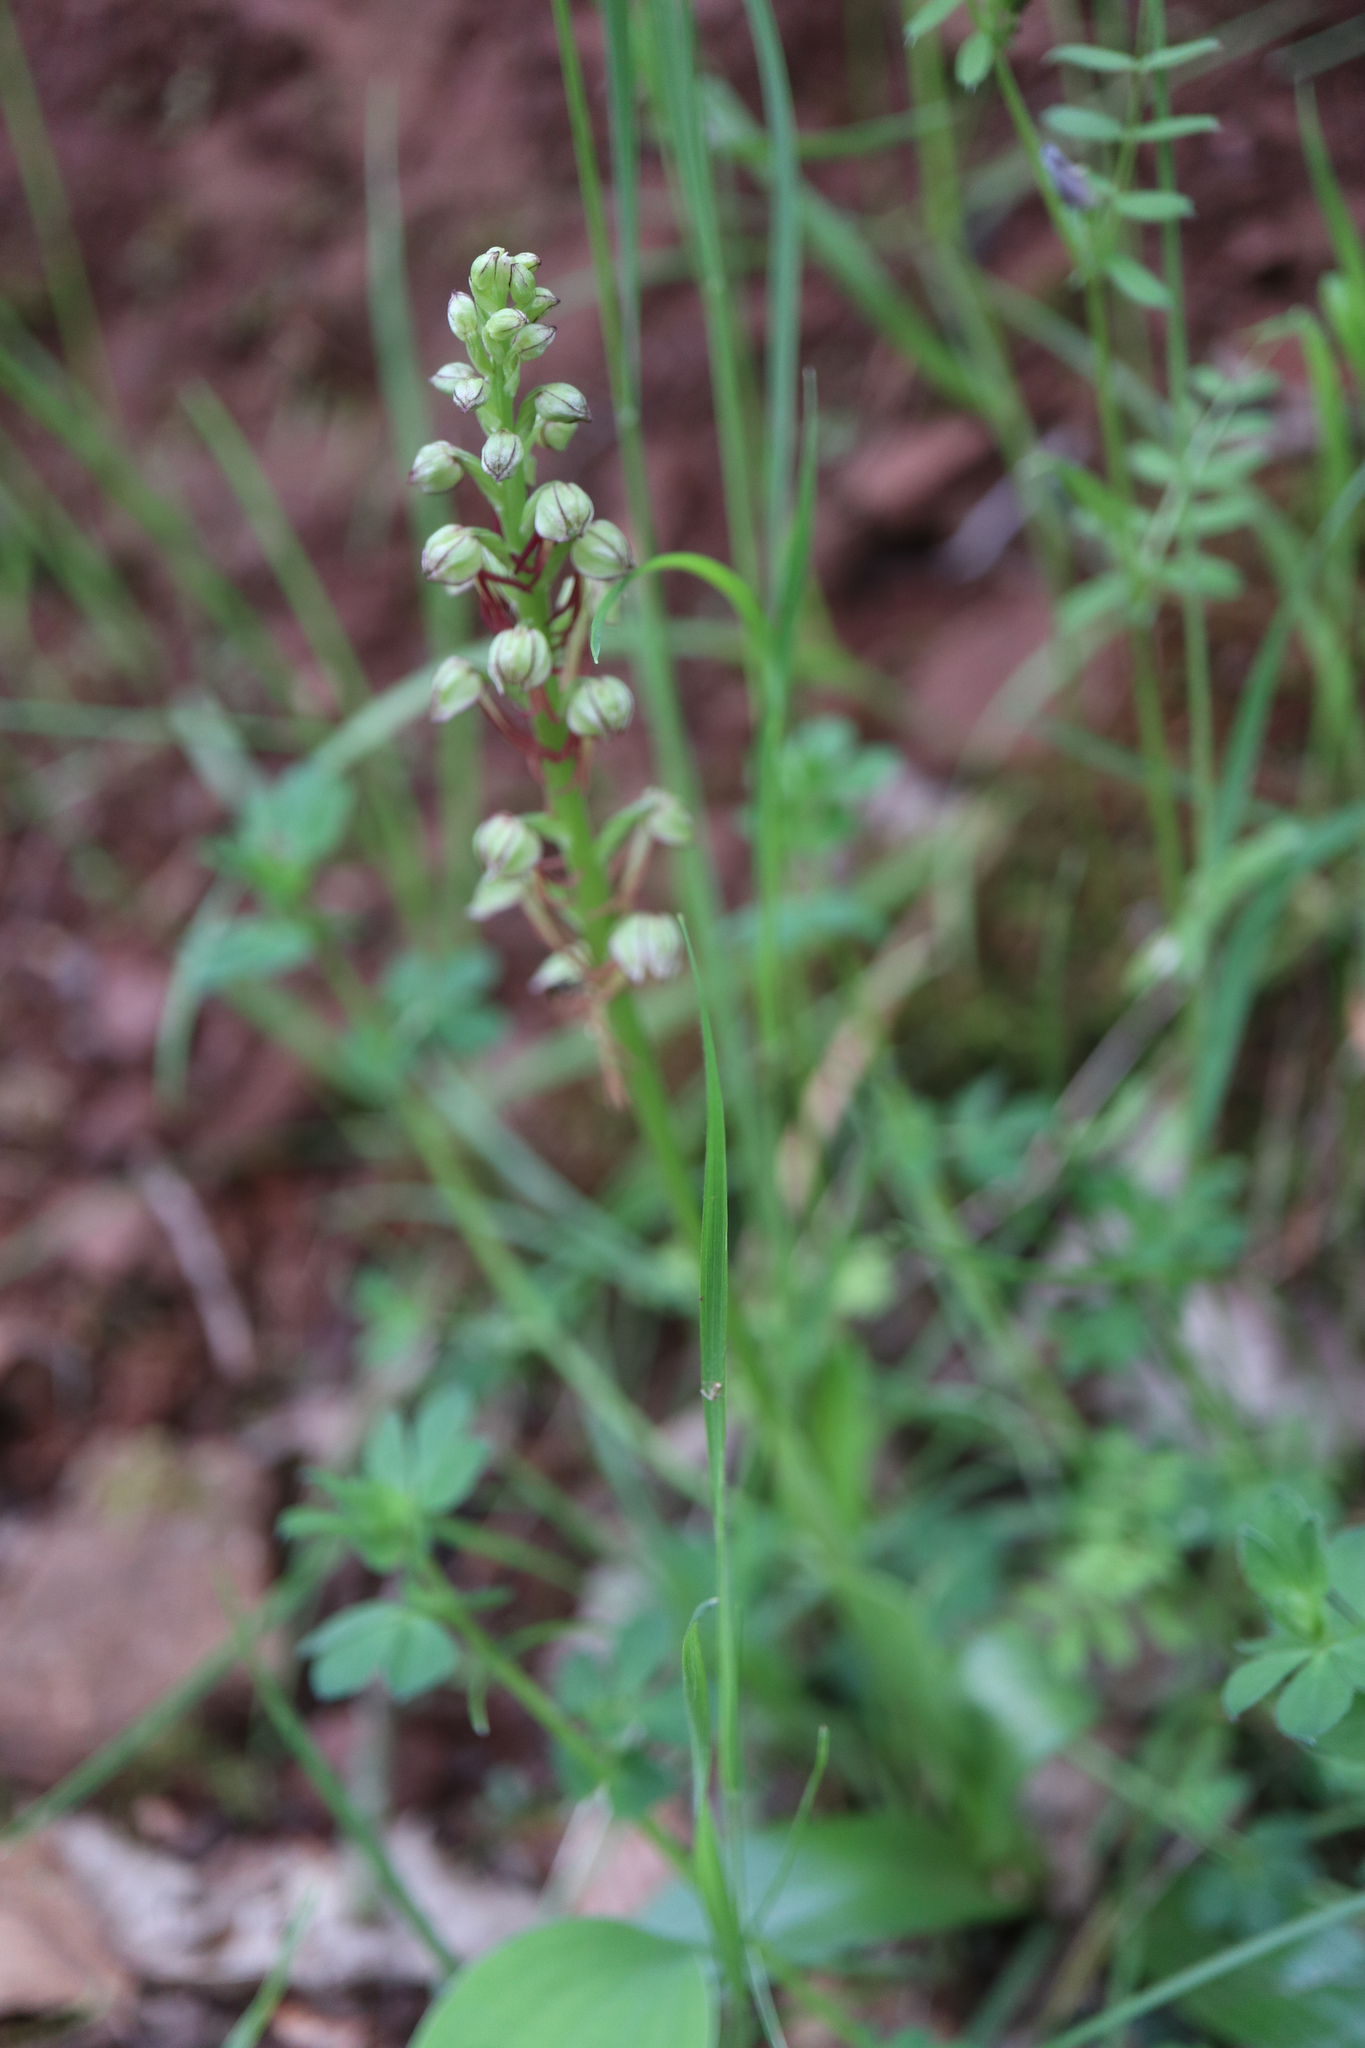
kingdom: Plantae
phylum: Tracheophyta
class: Liliopsida
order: Asparagales
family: Orchidaceae
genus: Orchis
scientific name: Orchis anthropophora
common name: Man orchid
